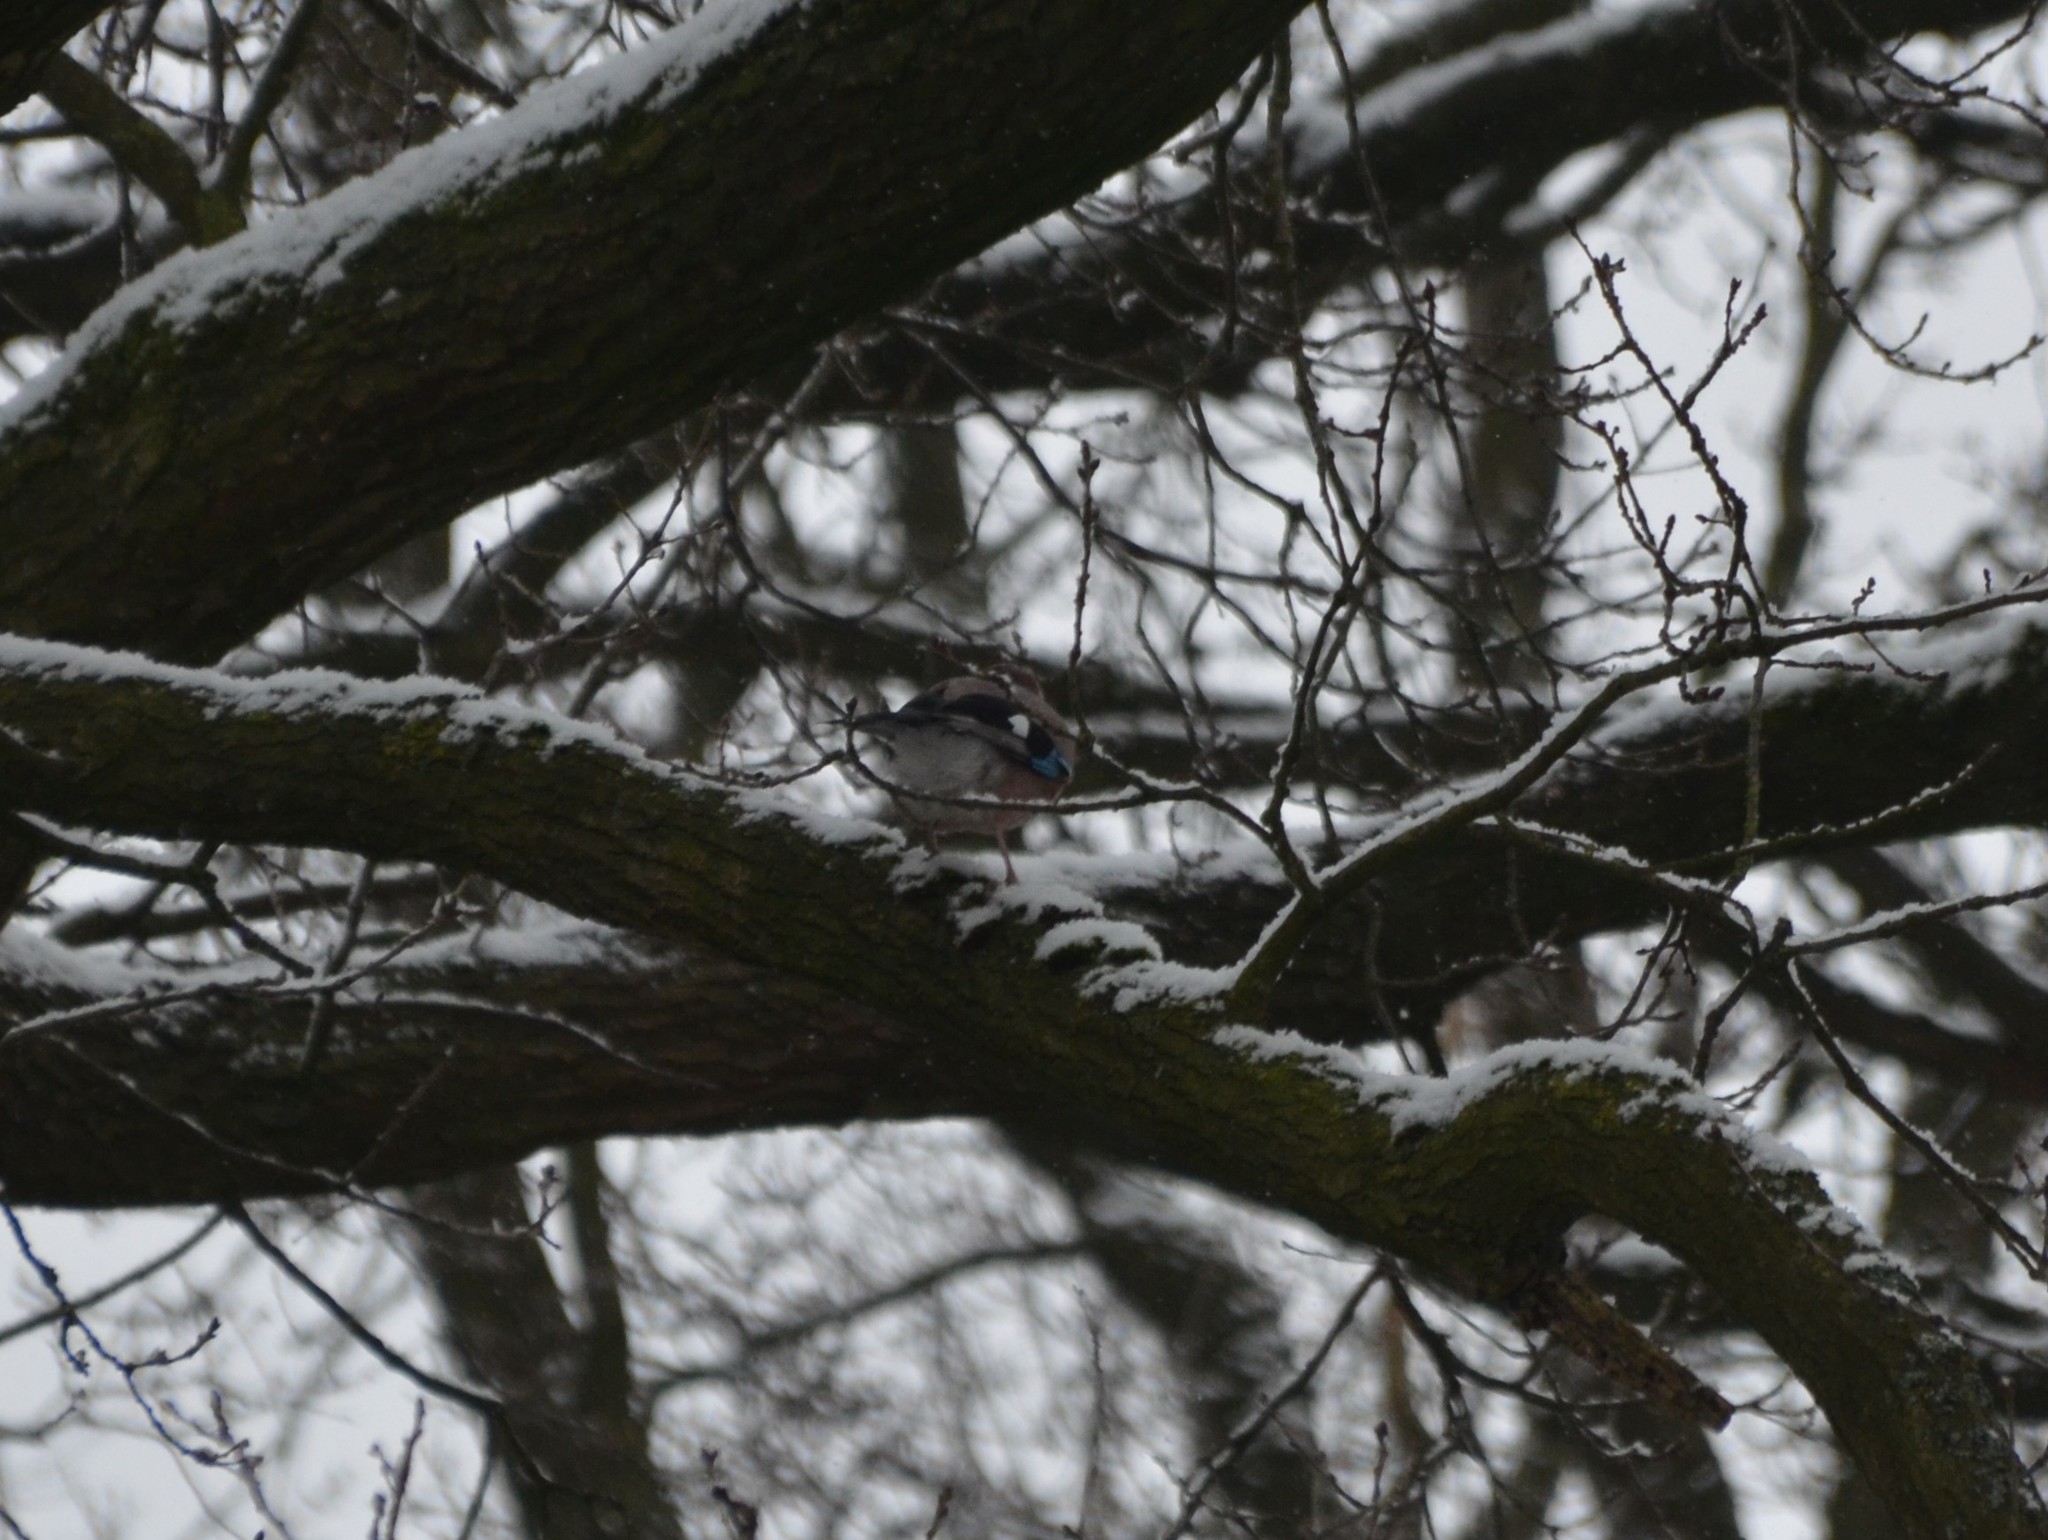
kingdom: Animalia
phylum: Chordata
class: Aves
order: Passeriformes
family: Corvidae
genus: Garrulus
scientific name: Garrulus glandarius
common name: Eurasian jay
